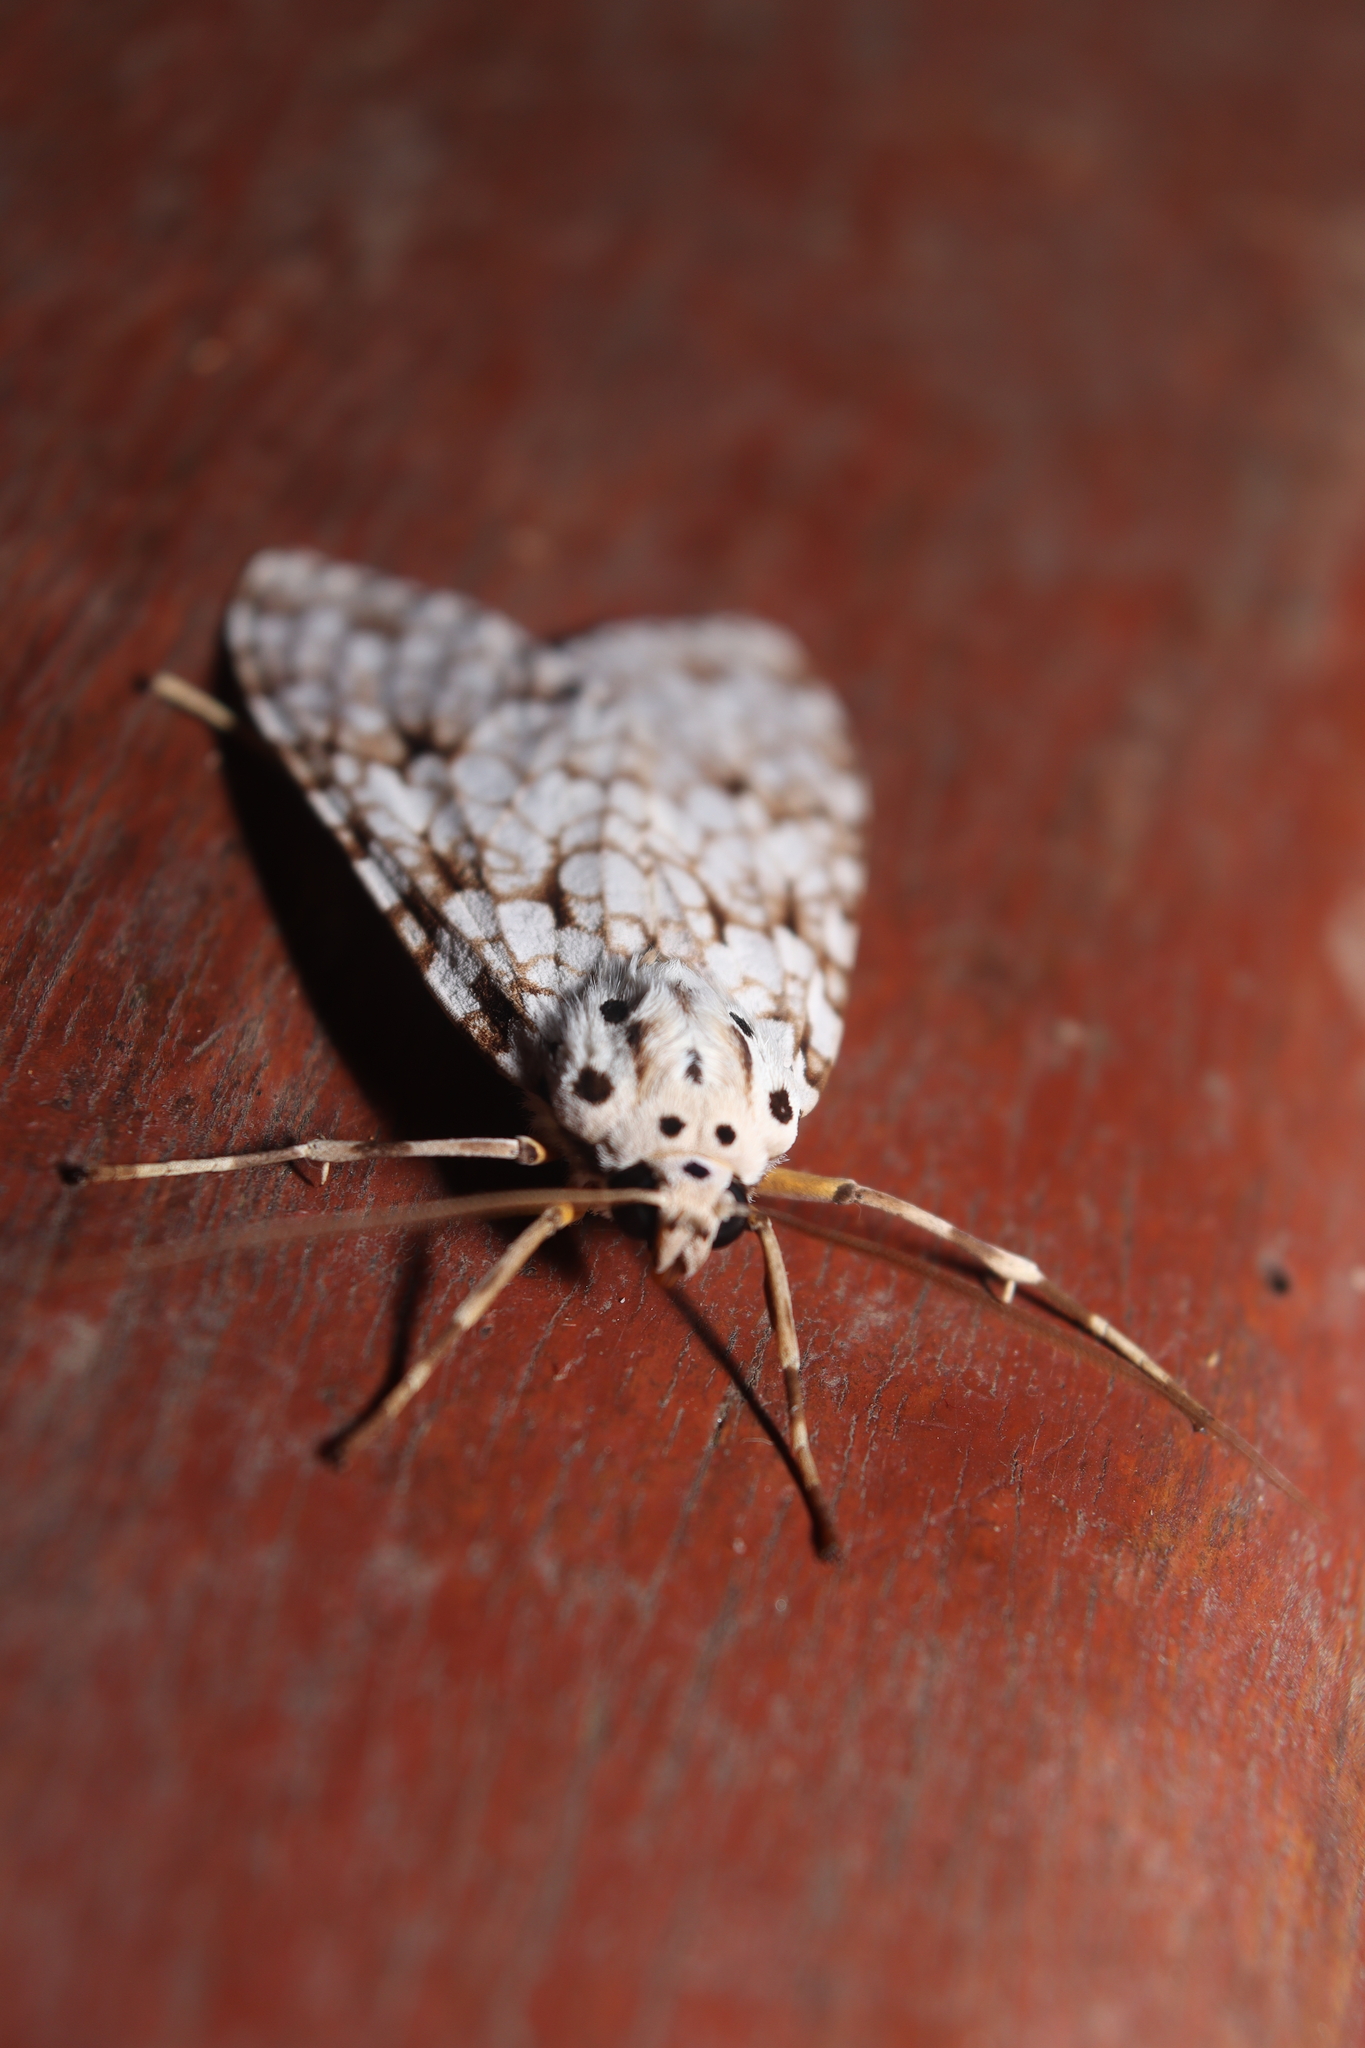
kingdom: Animalia
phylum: Arthropoda
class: Insecta
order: Lepidoptera
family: Erebidae
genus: Carales
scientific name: Carales astur
